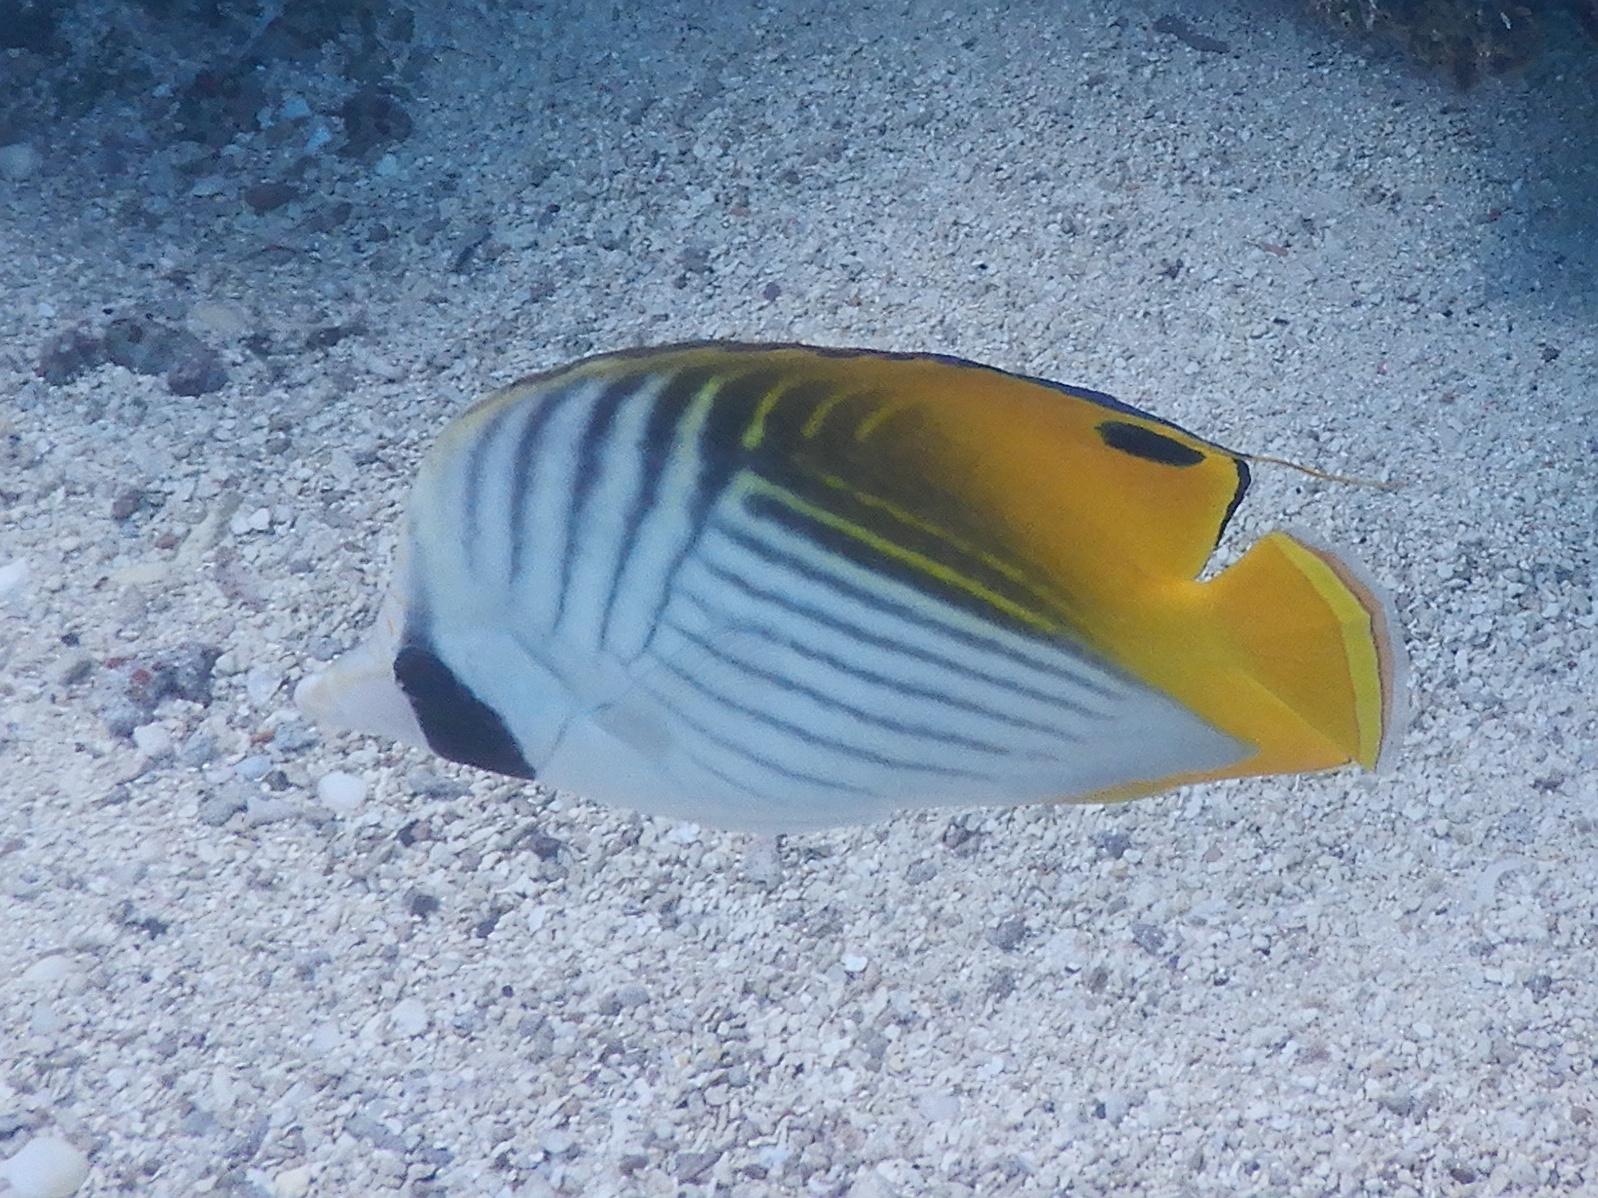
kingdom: Animalia
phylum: Chordata
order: Perciformes
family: Chaetodontidae
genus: Chaetodon
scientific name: Chaetodon auriga
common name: Threadfin butterflyfish
